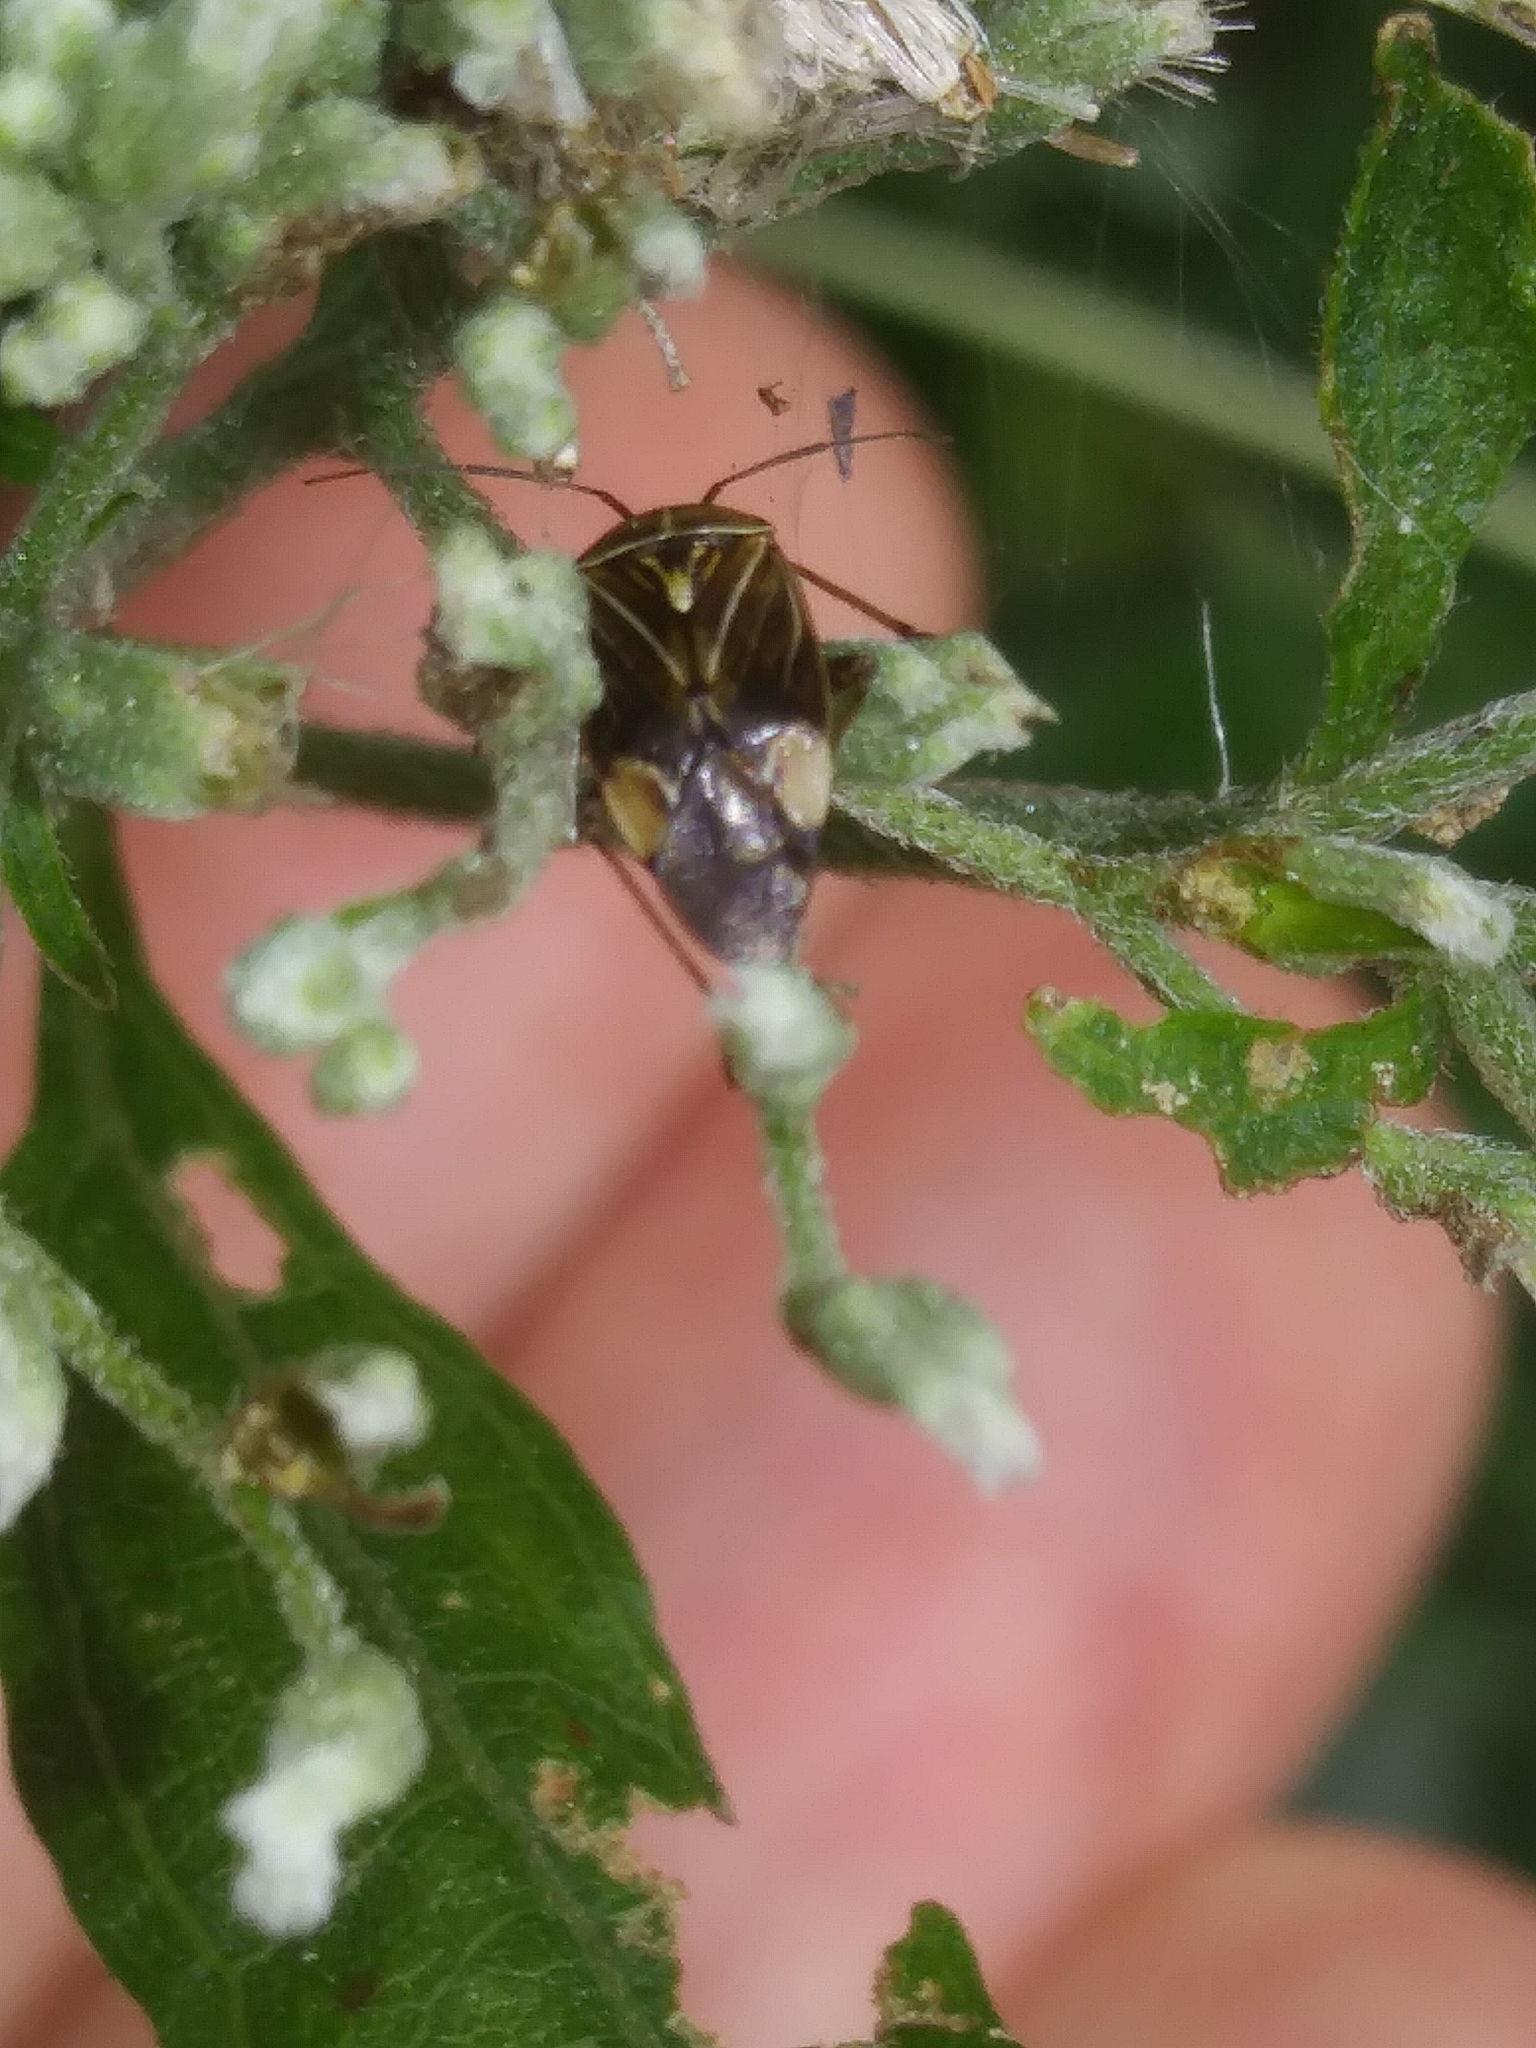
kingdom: Animalia
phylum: Arthropoda
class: Insecta
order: Hemiptera
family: Miridae
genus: Lygus
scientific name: Lygus lineolaris
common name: North american tarnished plant bug
